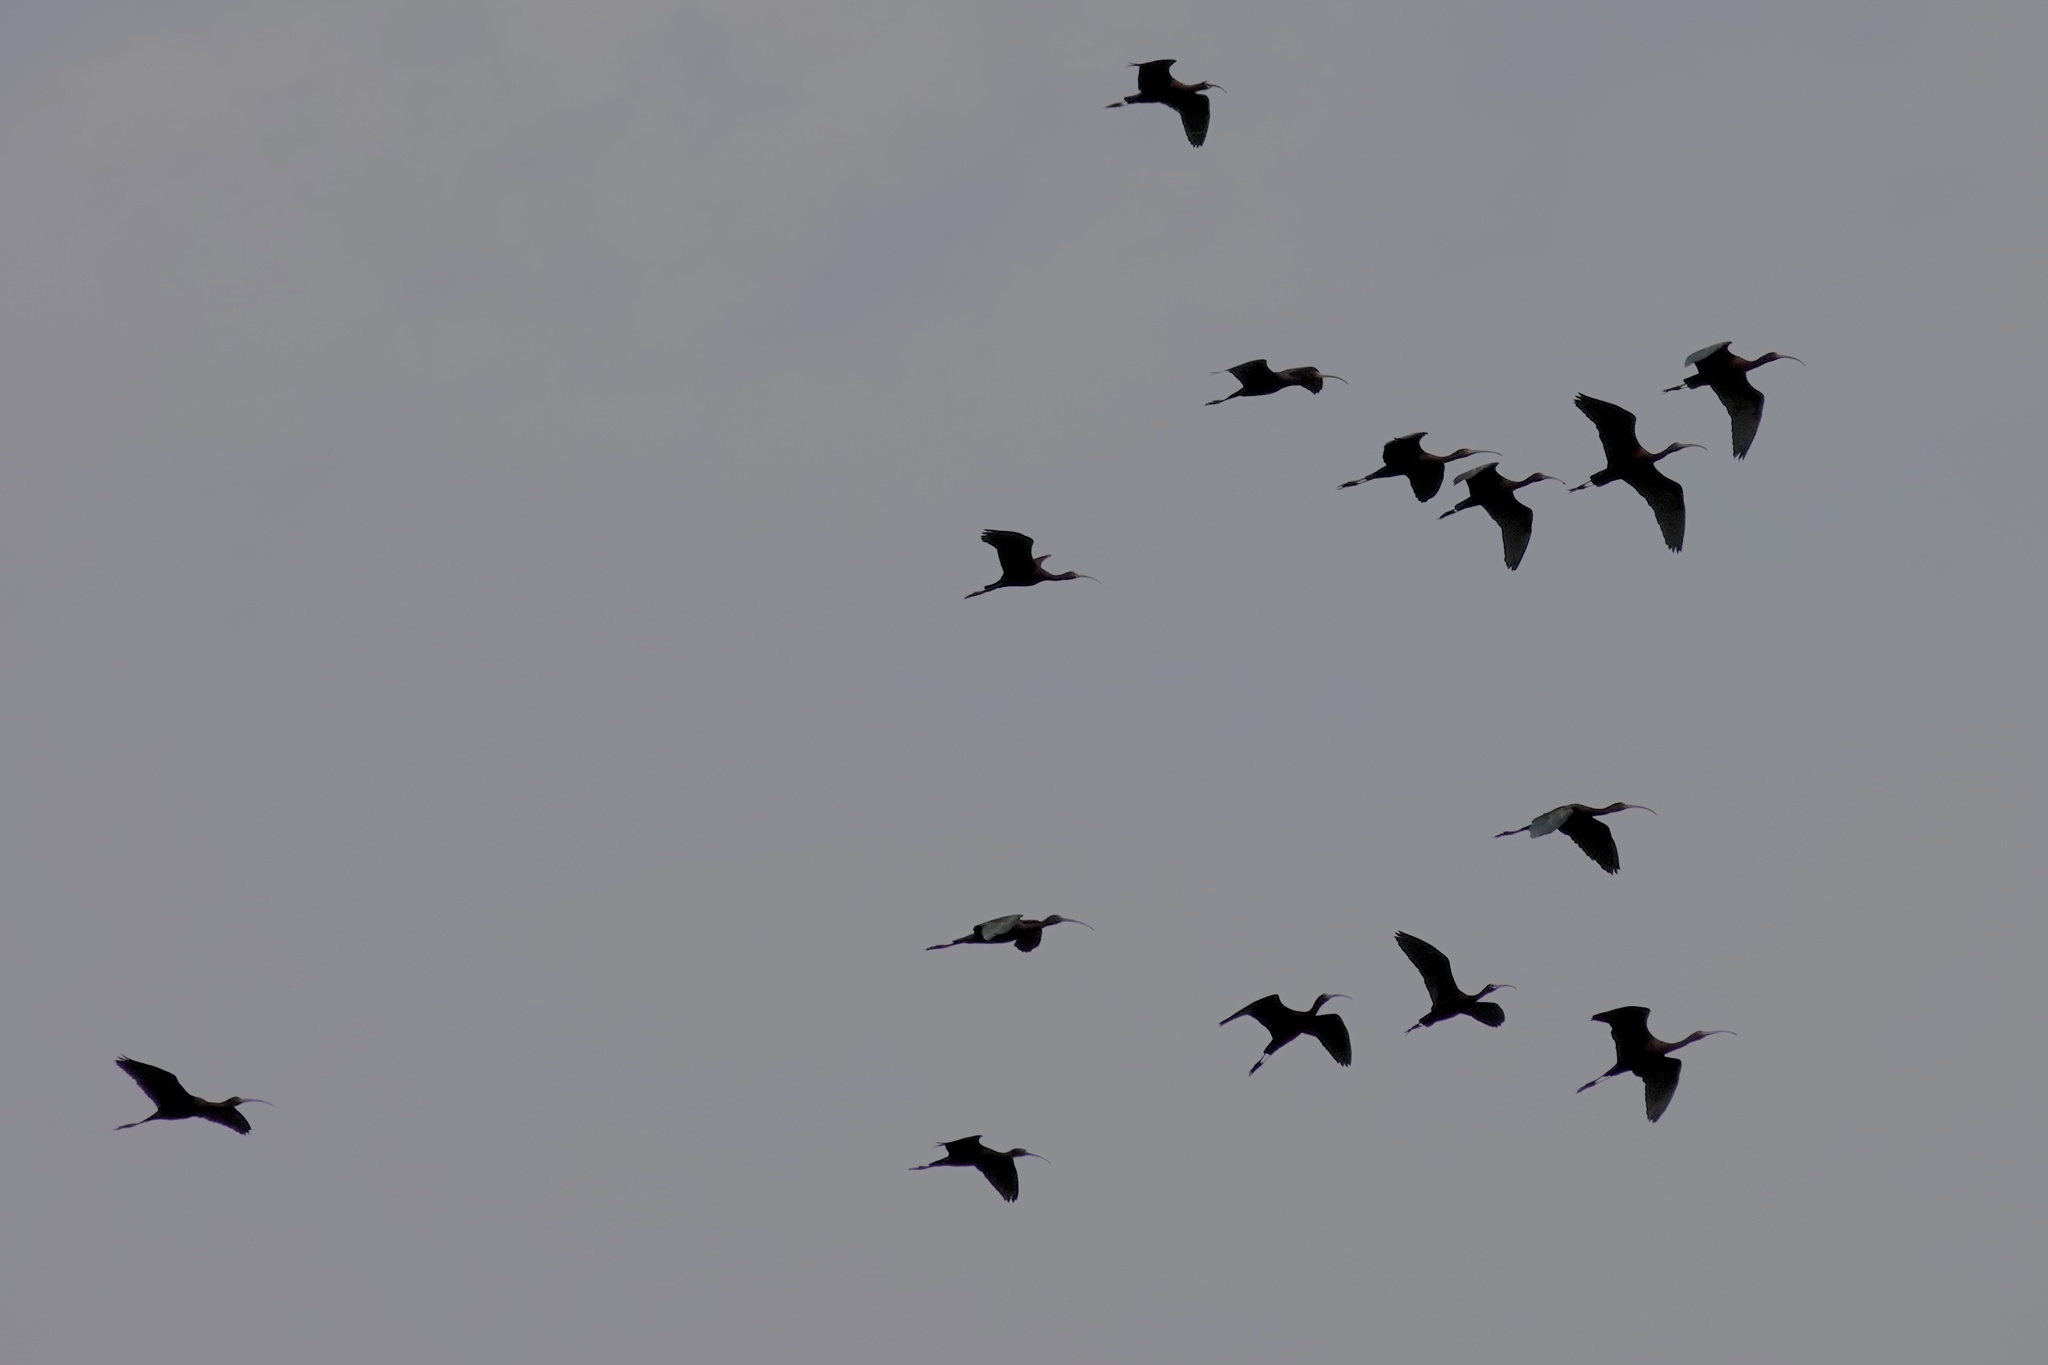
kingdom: Animalia
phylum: Chordata
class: Aves
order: Pelecaniformes
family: Threskiornithidae
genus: Plegadis
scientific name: Plegadis chihi
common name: White-faced ibis
